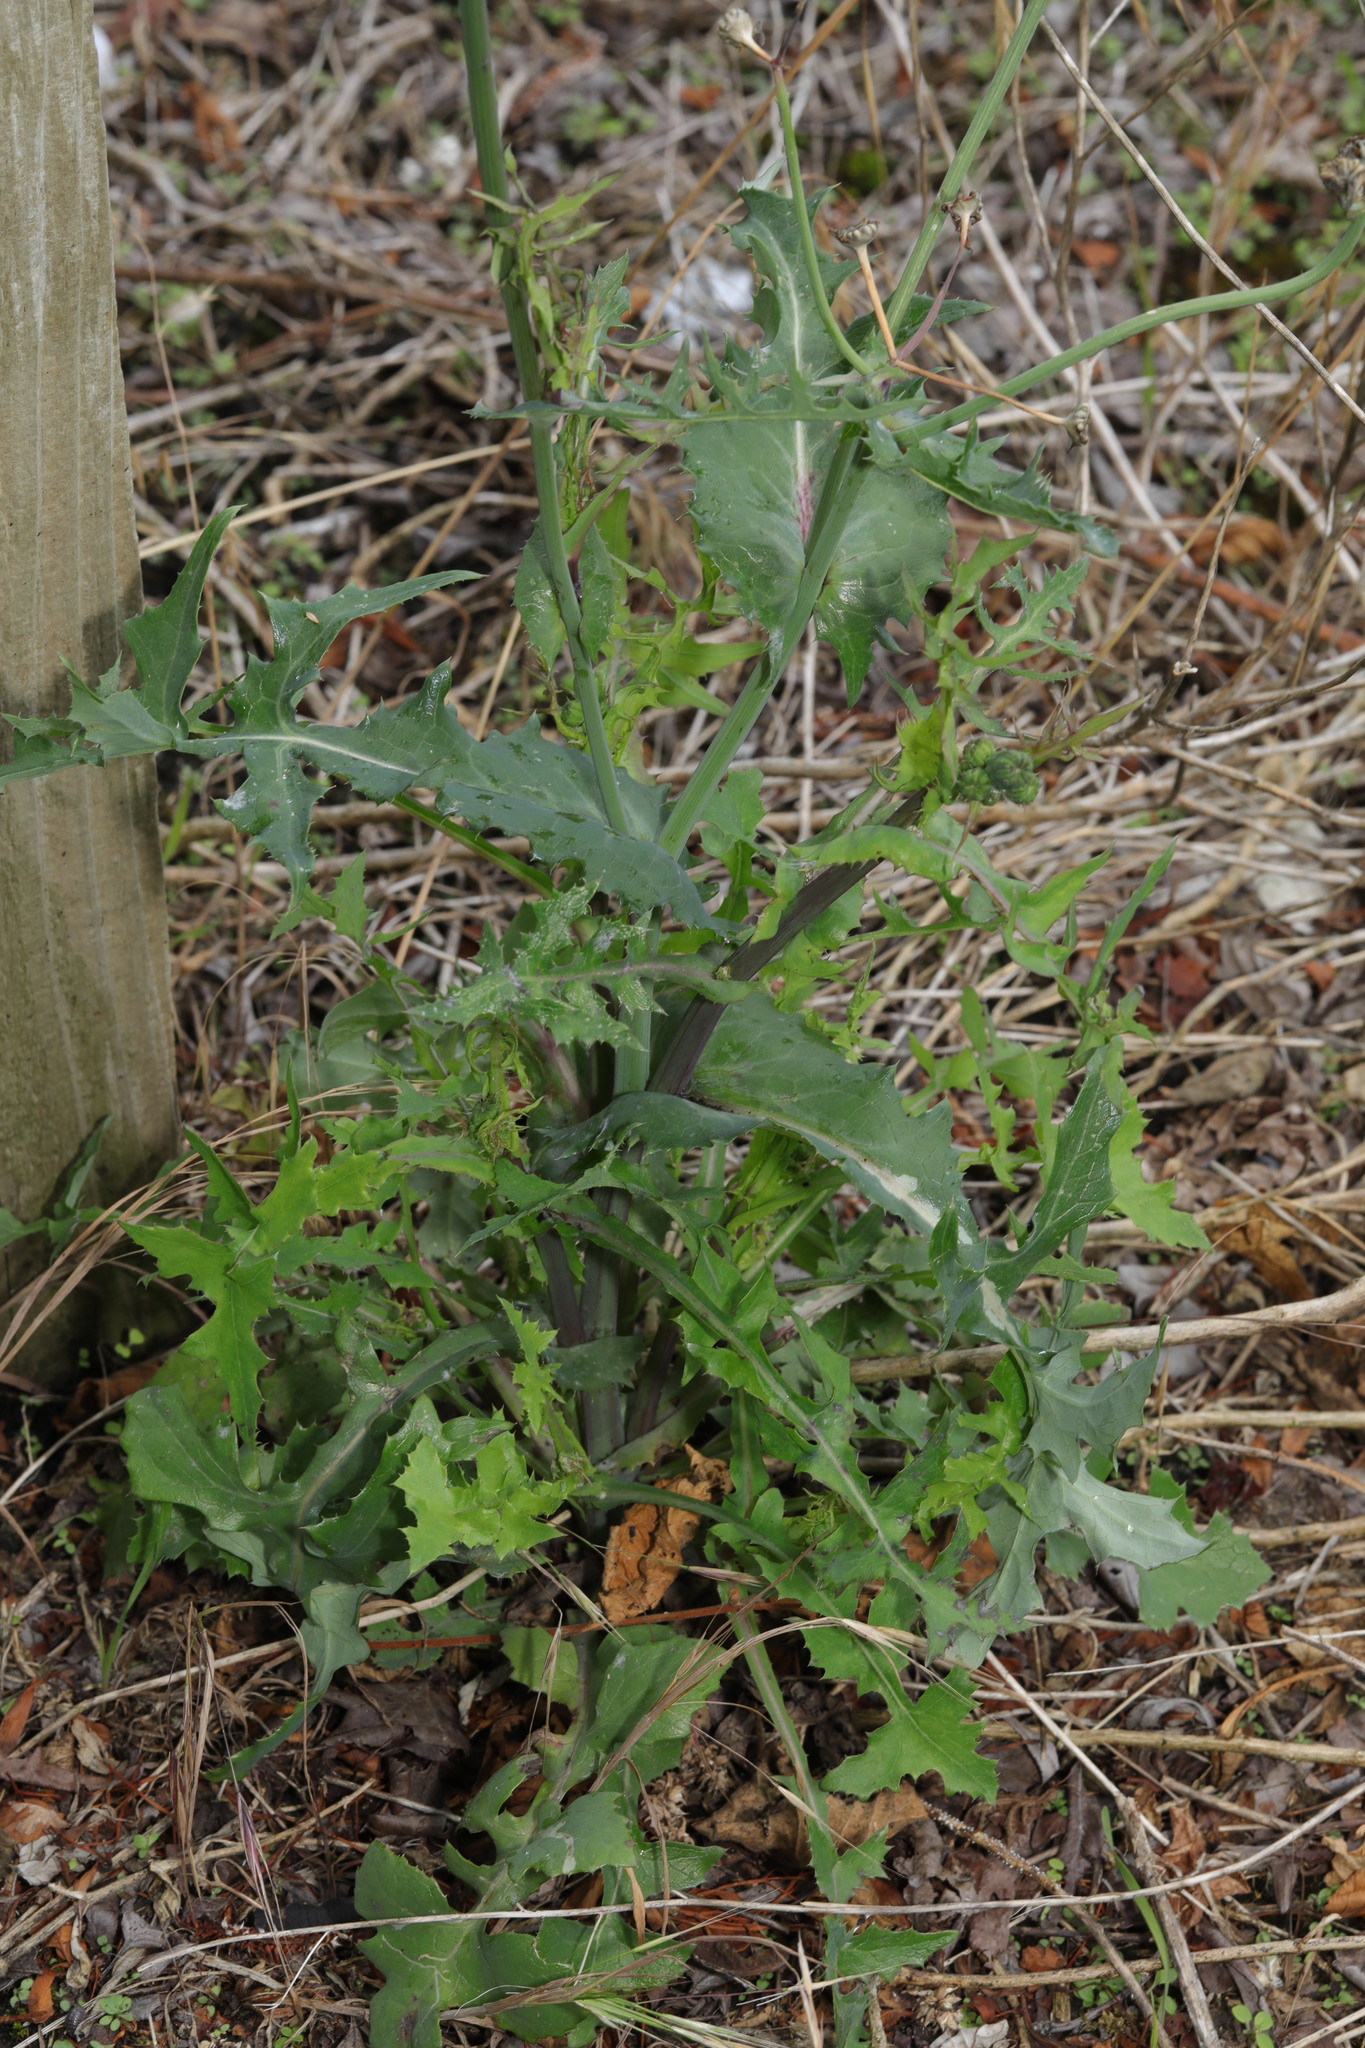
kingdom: Plantae
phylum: Tracheophyta
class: Magnoliopsida
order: Asterales
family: Asteraceae
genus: Sonchus
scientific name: Sonchus oleraceus
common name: Common sowthistle
